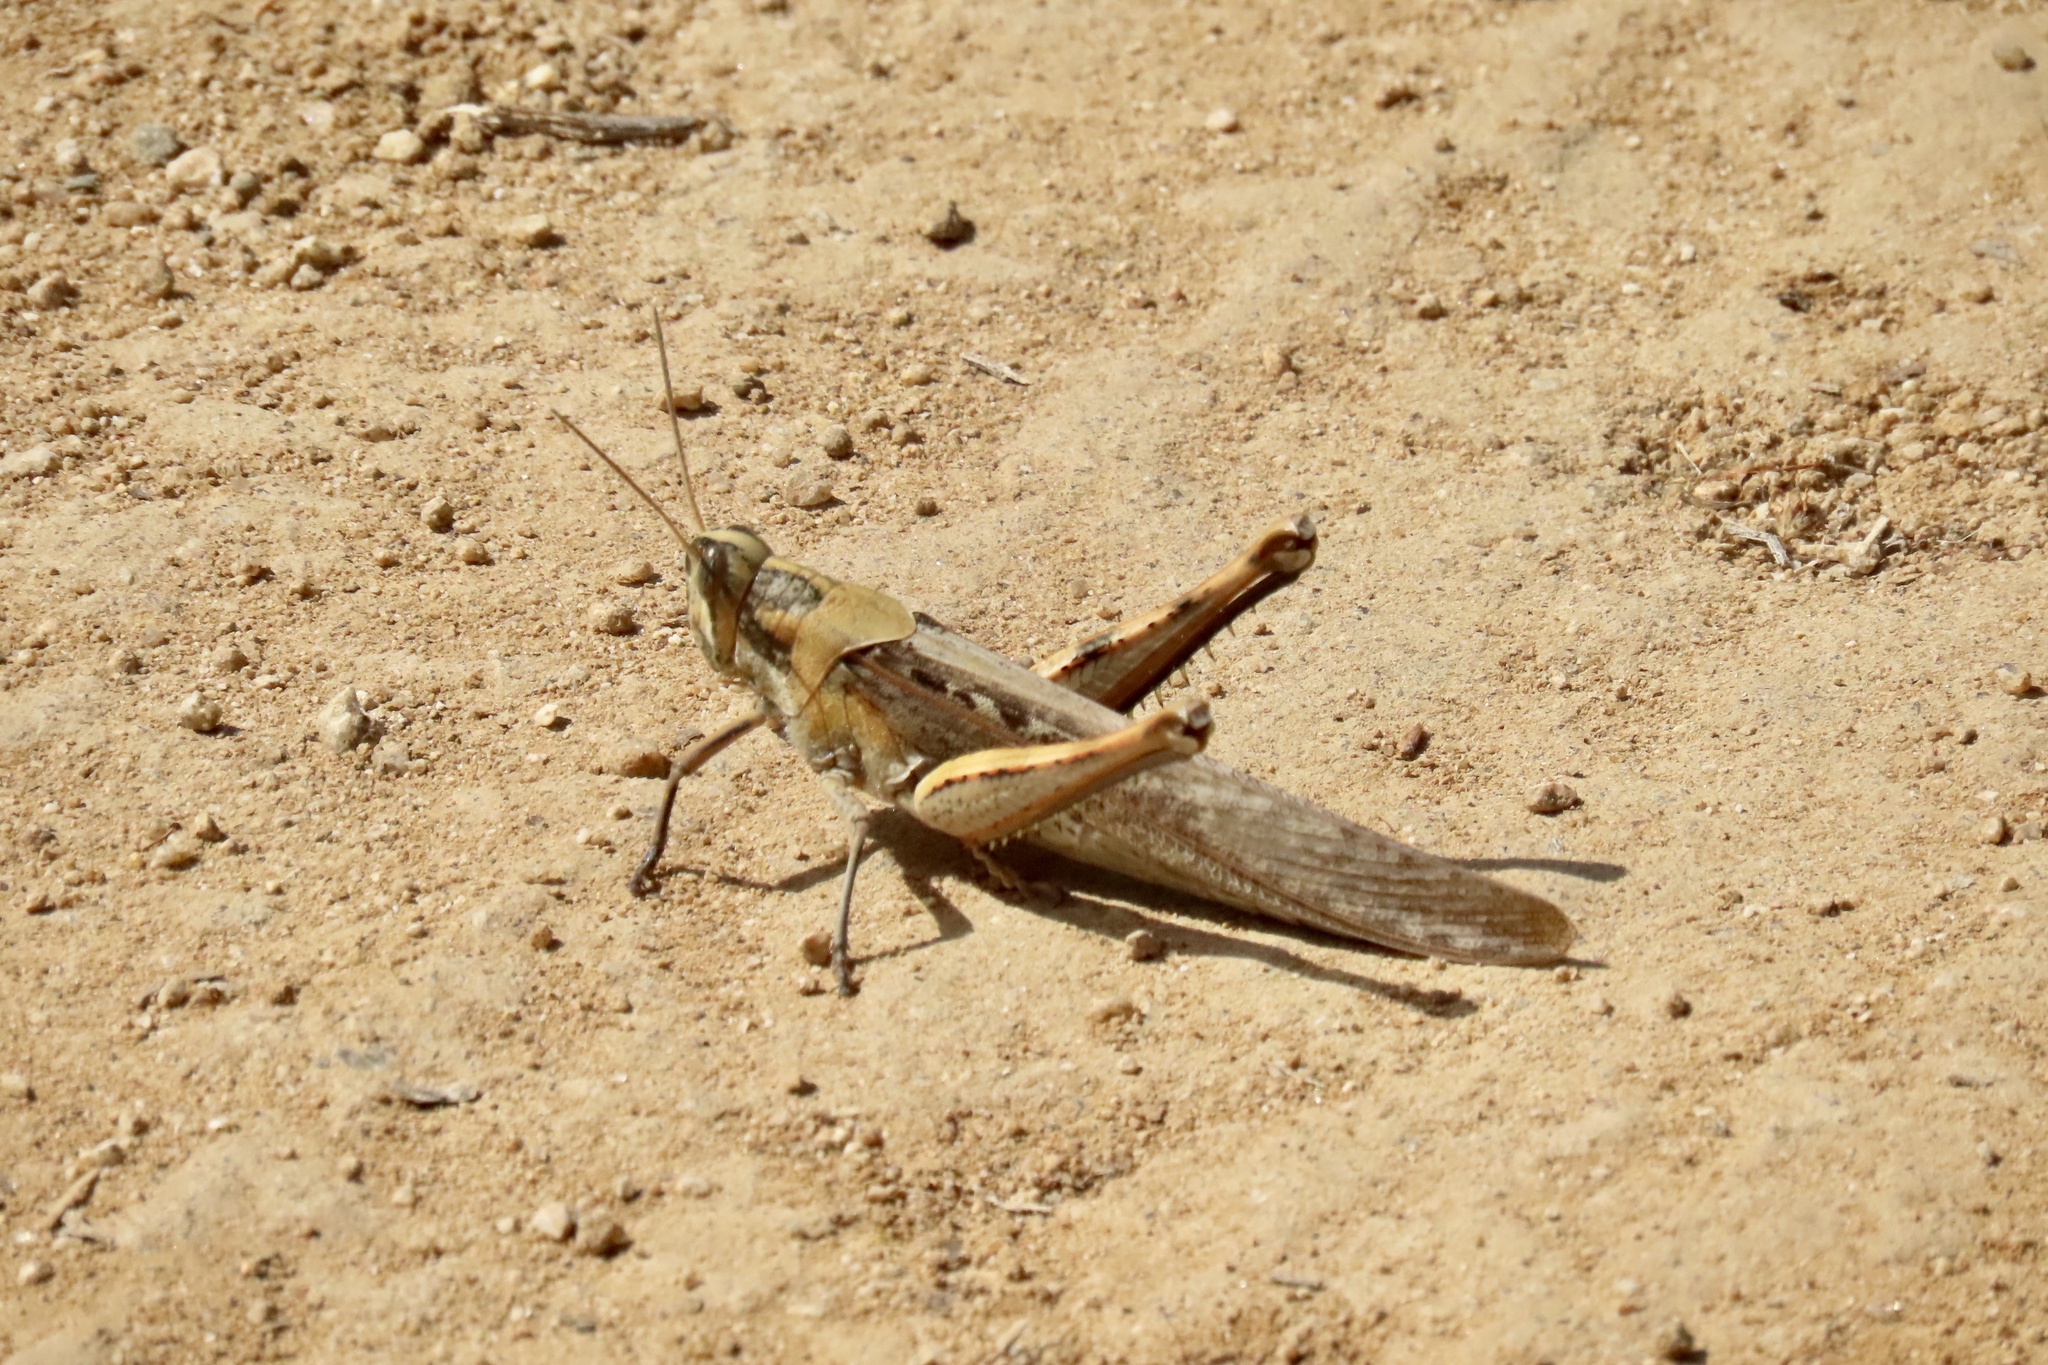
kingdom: Animalia
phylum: Arthropoda
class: Insecta
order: Orthoptera
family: Acrididae
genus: Schistocerca
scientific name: Schistocerca nitens
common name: Vagrant grasshopper
